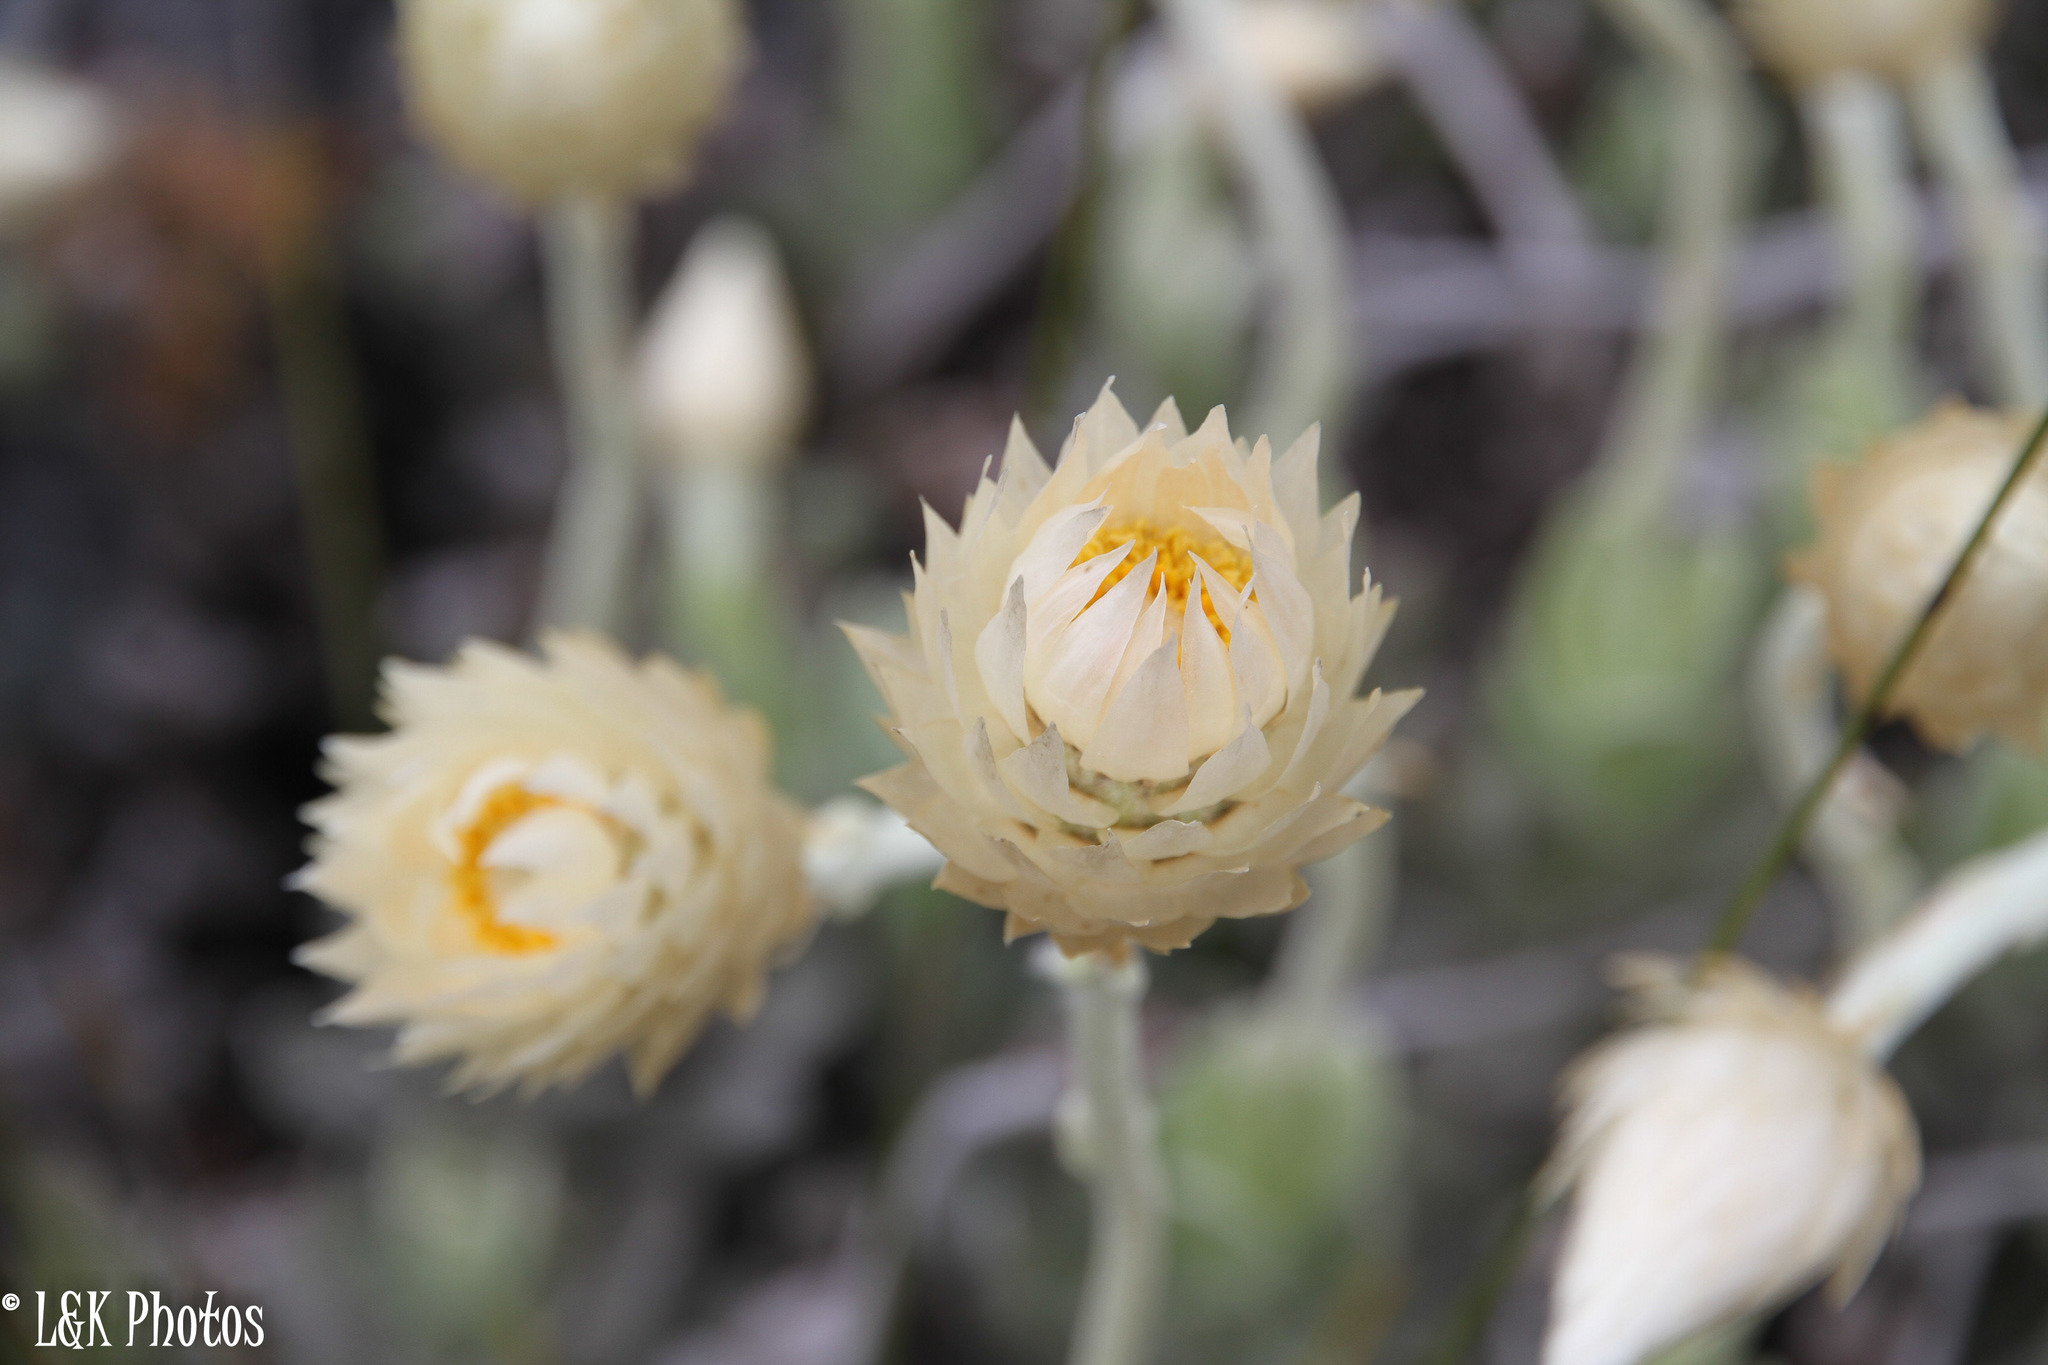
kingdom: Plantae
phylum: Tracheophyta
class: Magnoliopsida
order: Asterales
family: Asteraceae
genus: Syncarpha
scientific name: Syncarpha speciosissima
